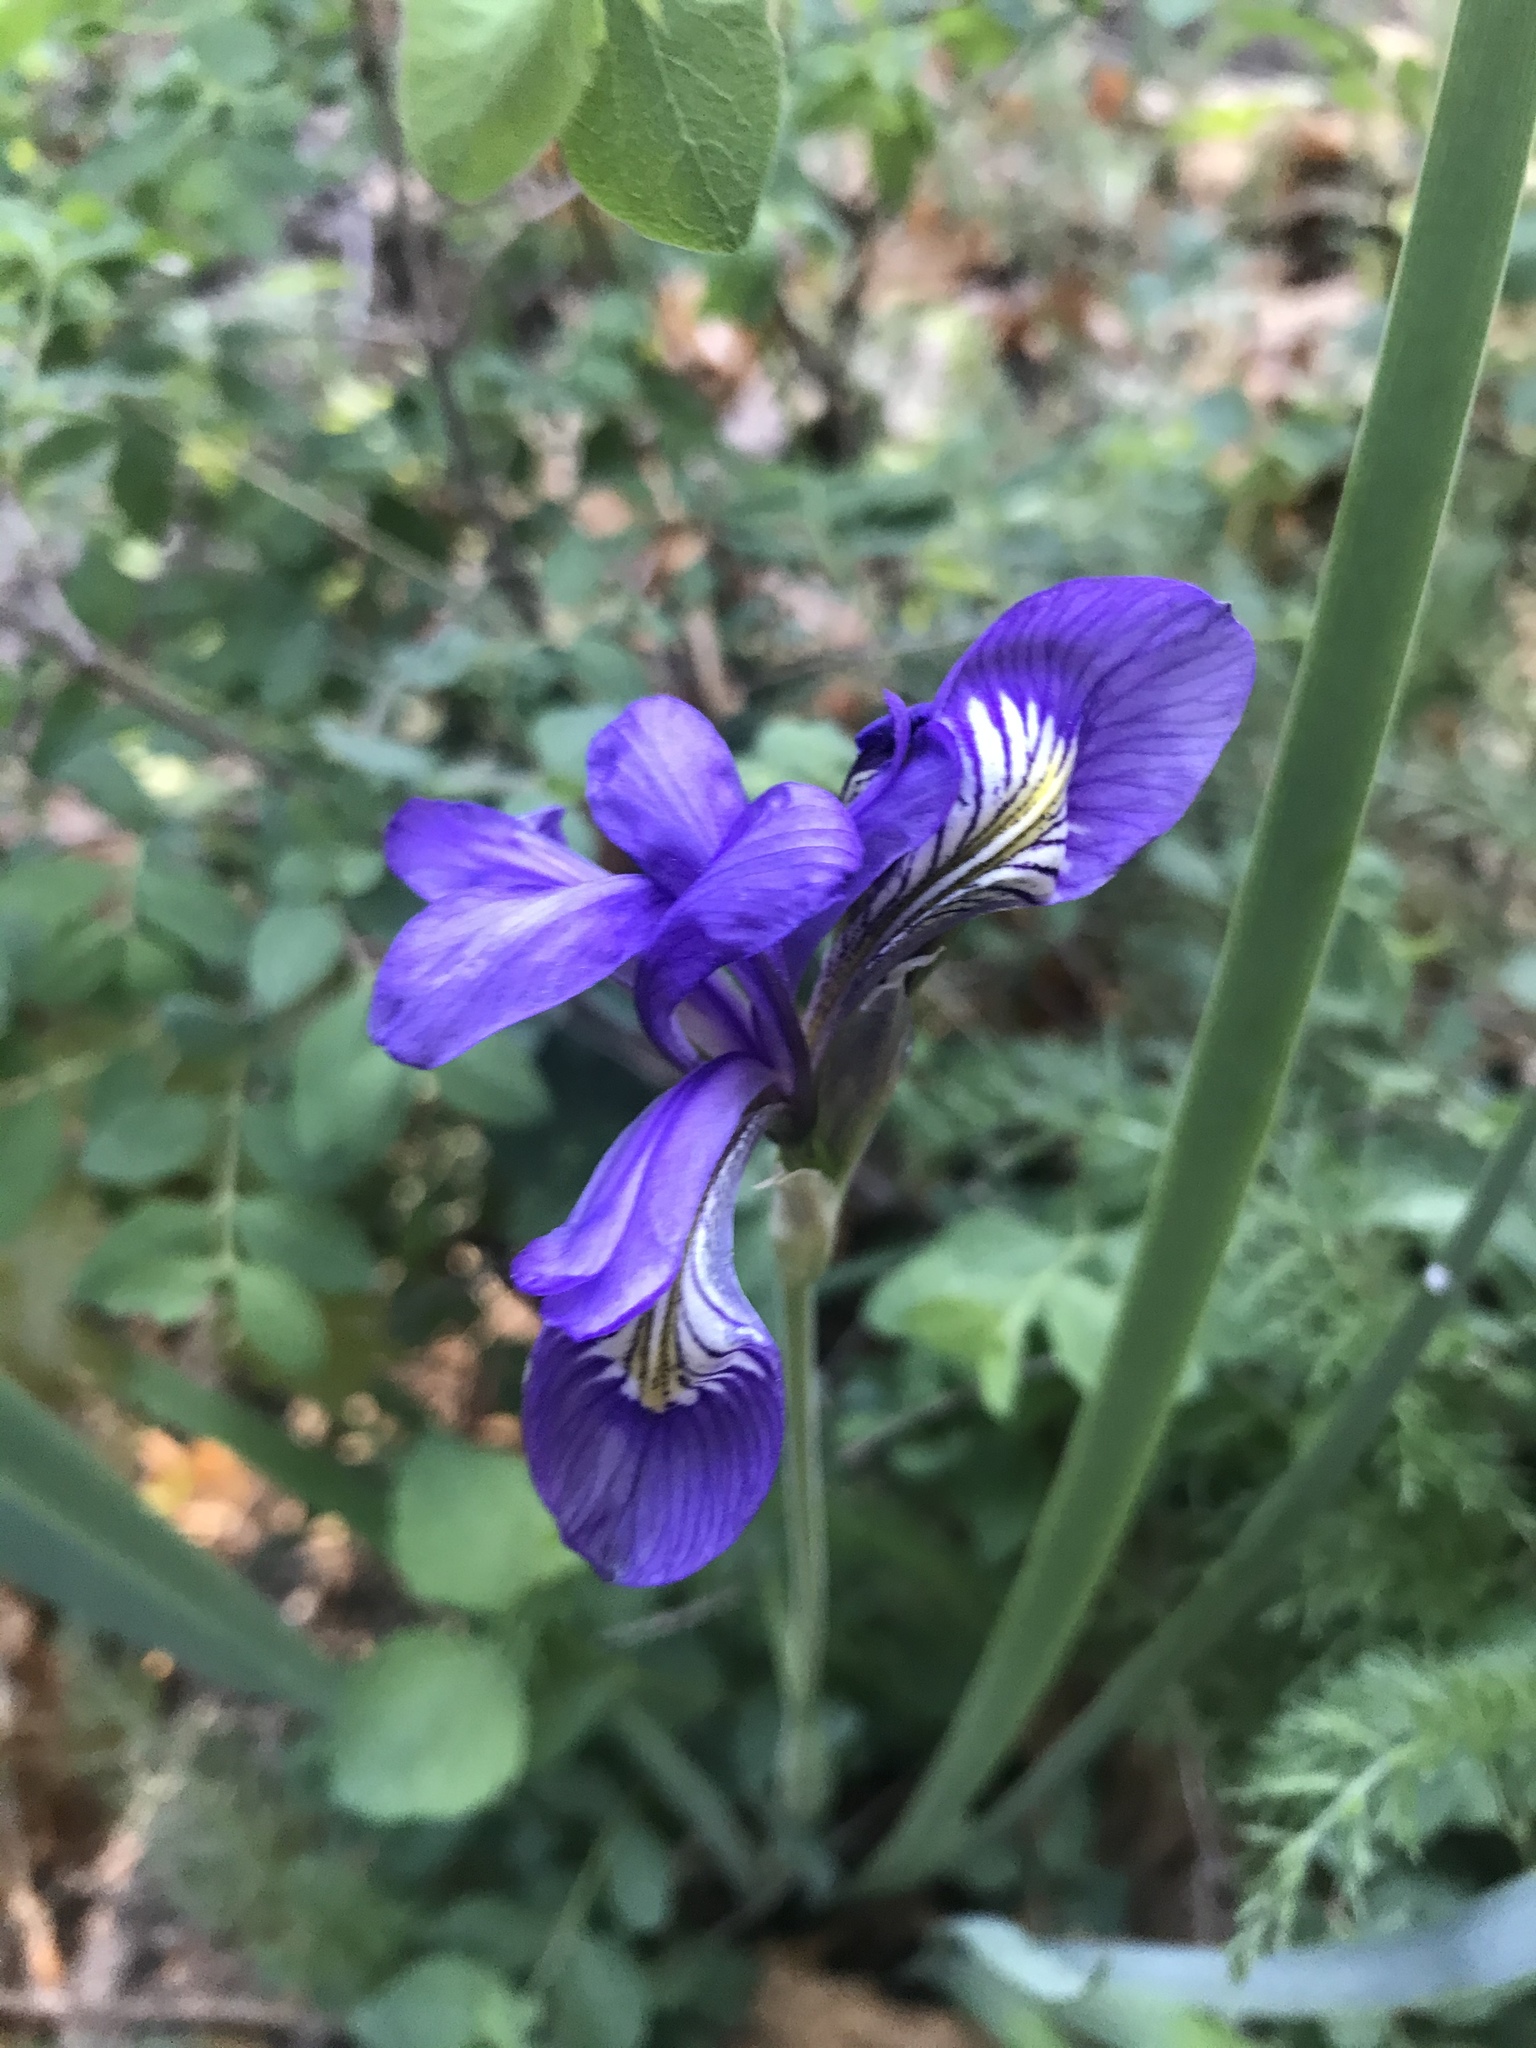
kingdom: Plantae
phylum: Tracheophyta
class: Liliopsida
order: Asparagales
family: Iridaceae
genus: Iris
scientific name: Iris missouriensis
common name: Rocky mountain iris
